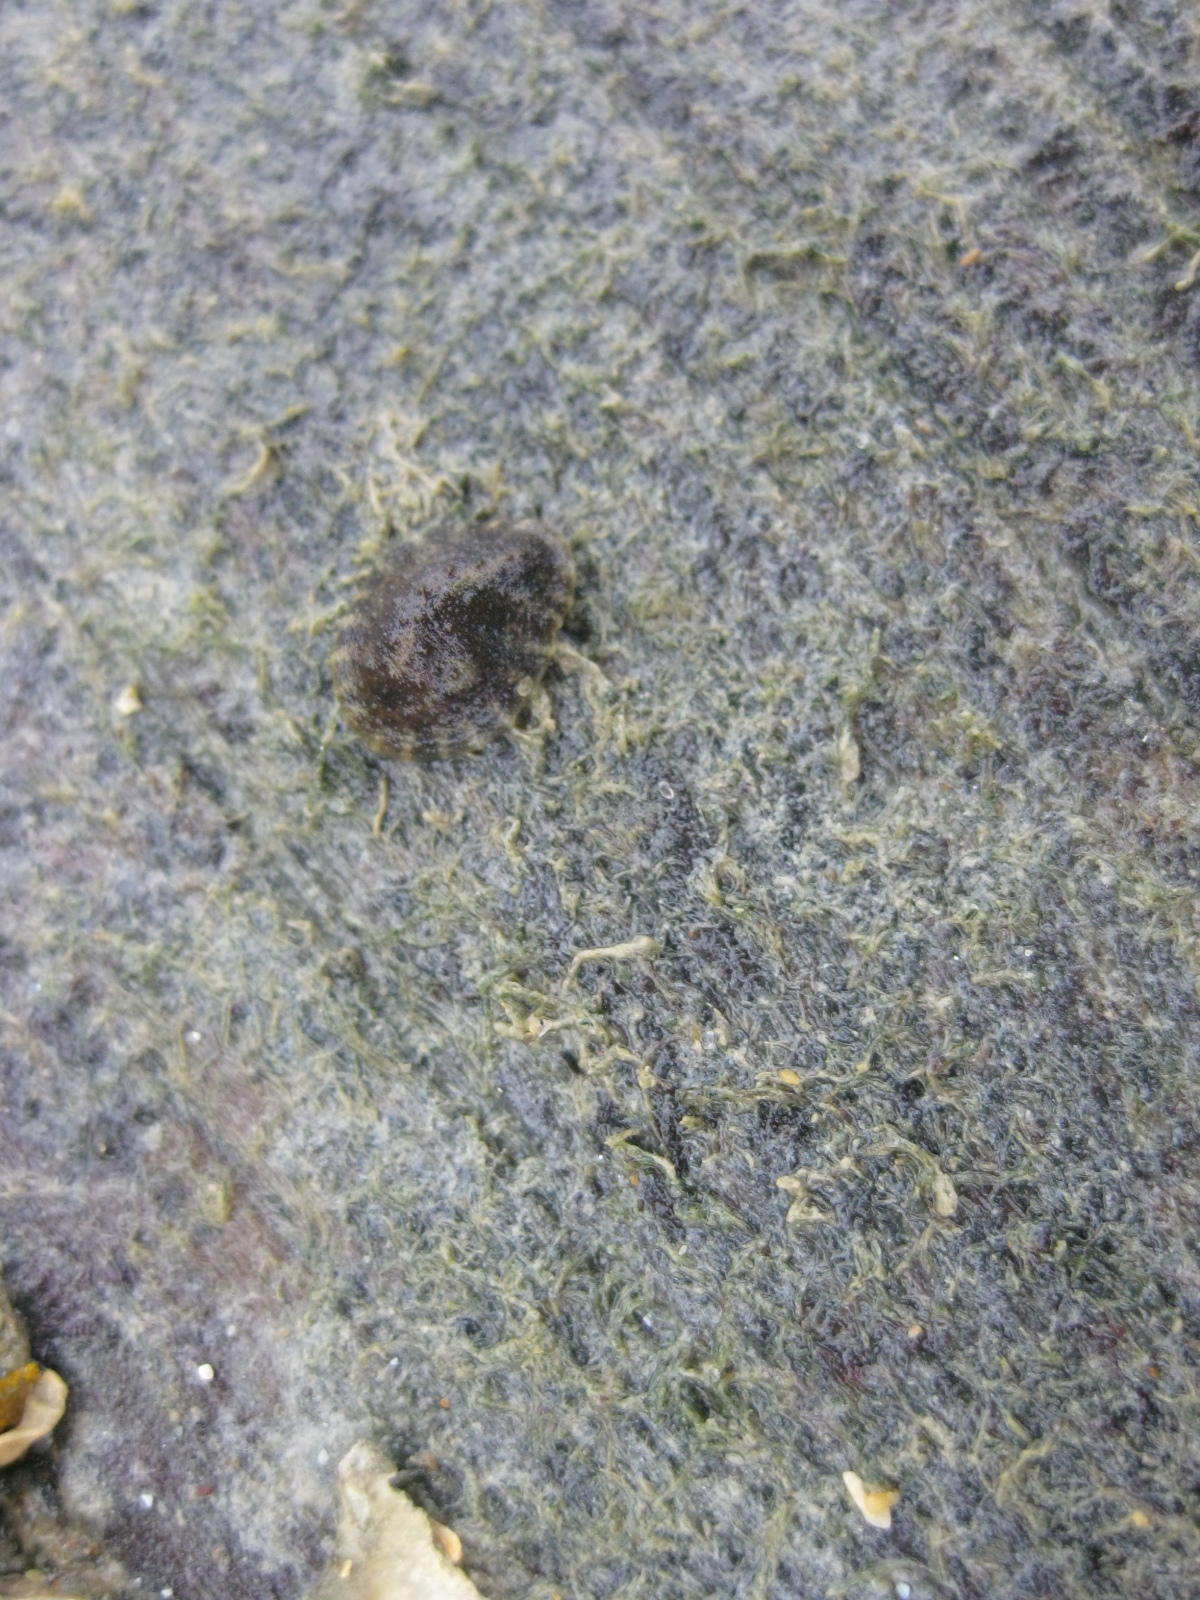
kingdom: Animalia
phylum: Mollusca
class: Gastropoda
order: Systellommatophora
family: Onchidiidae
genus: Onchidella
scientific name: Onchidella nigricans
